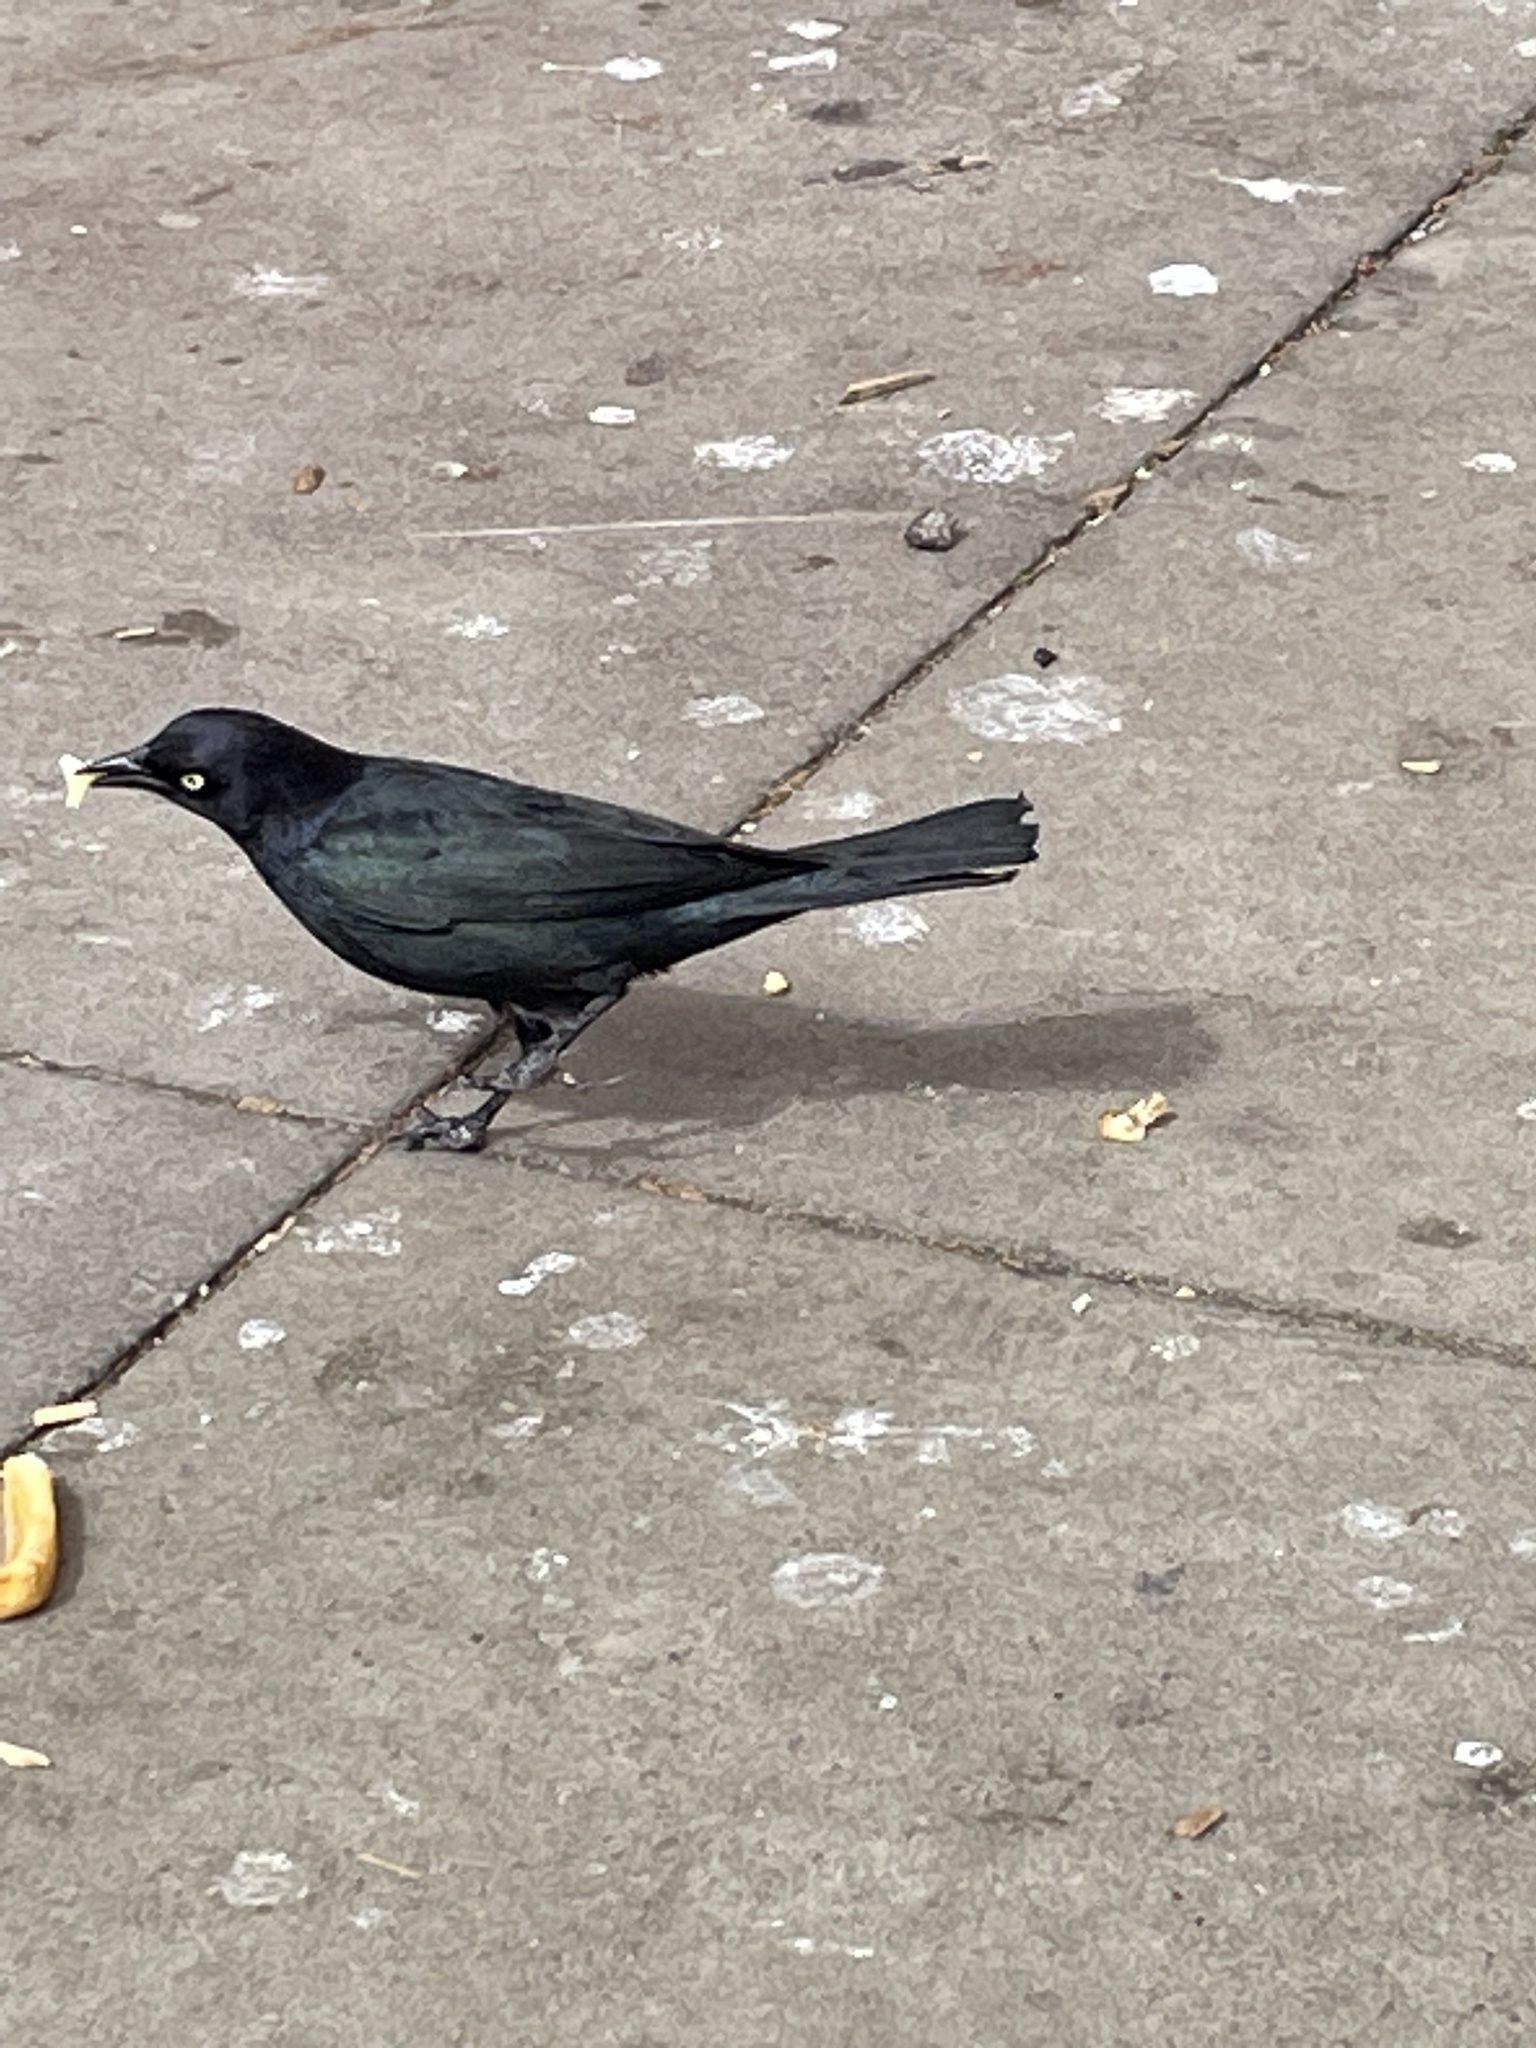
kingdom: Animalia
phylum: Chordata
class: Aves
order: Passeriformes
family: Icteridae
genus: Euphagus
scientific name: Euphagus cyanocephalus
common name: Brewer's blackbird
